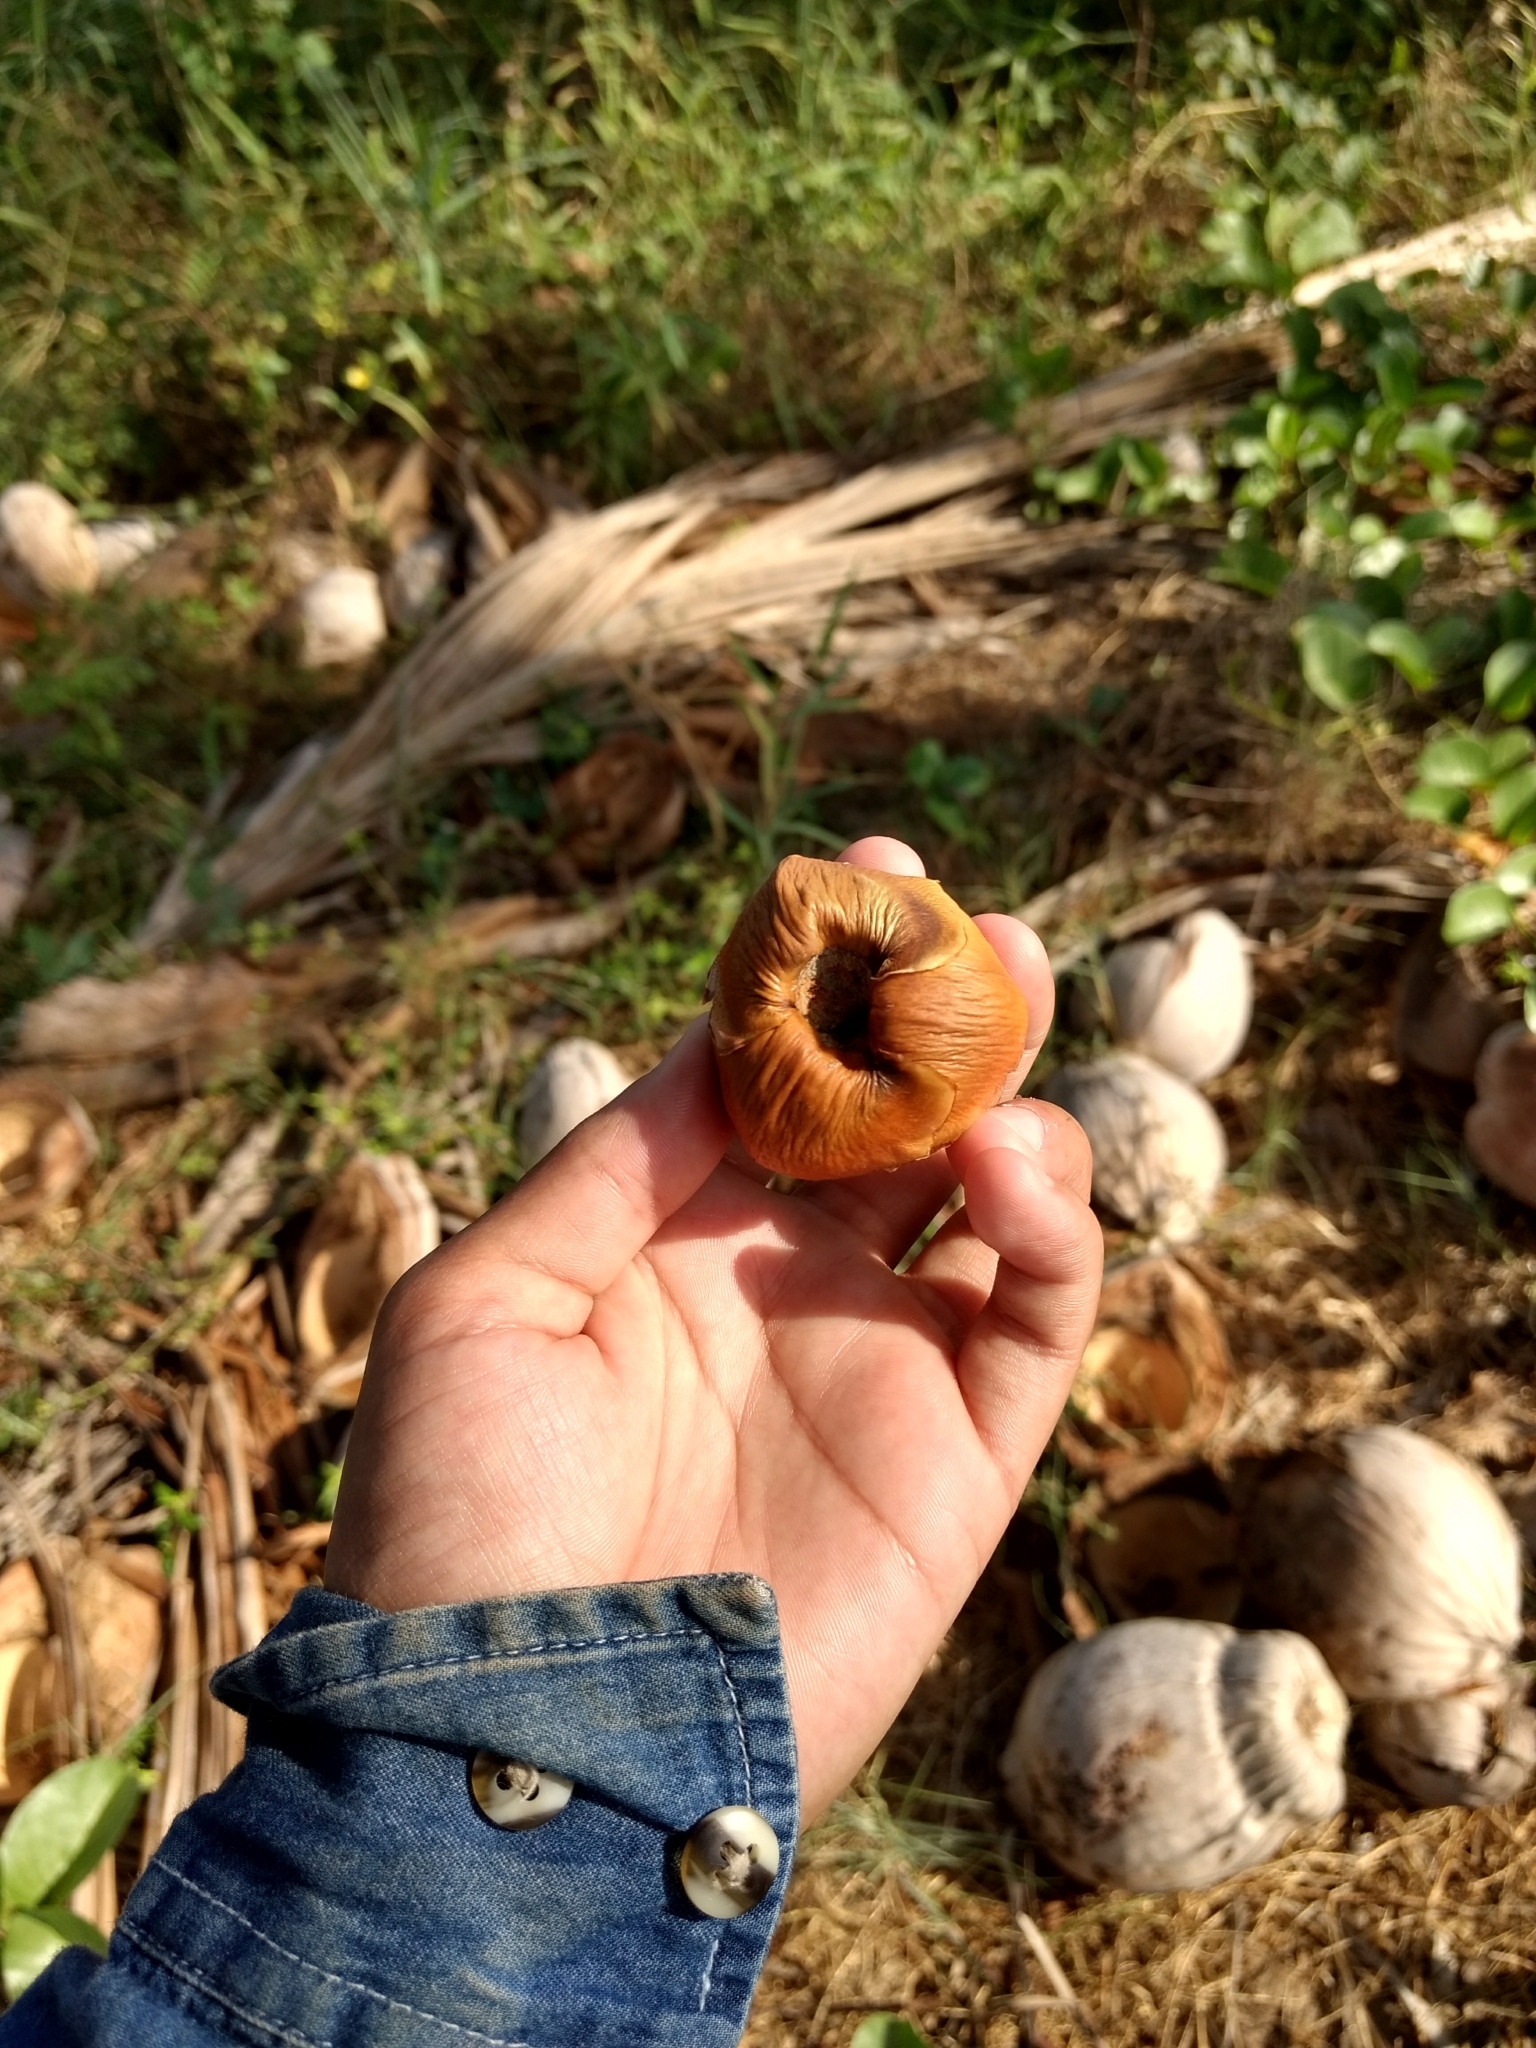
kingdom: Plantae
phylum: Tracheophyta
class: Liliopsida
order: Arecales
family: Arecaceae
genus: Cocos
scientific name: Cocos nucifera
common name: Coconut palm
